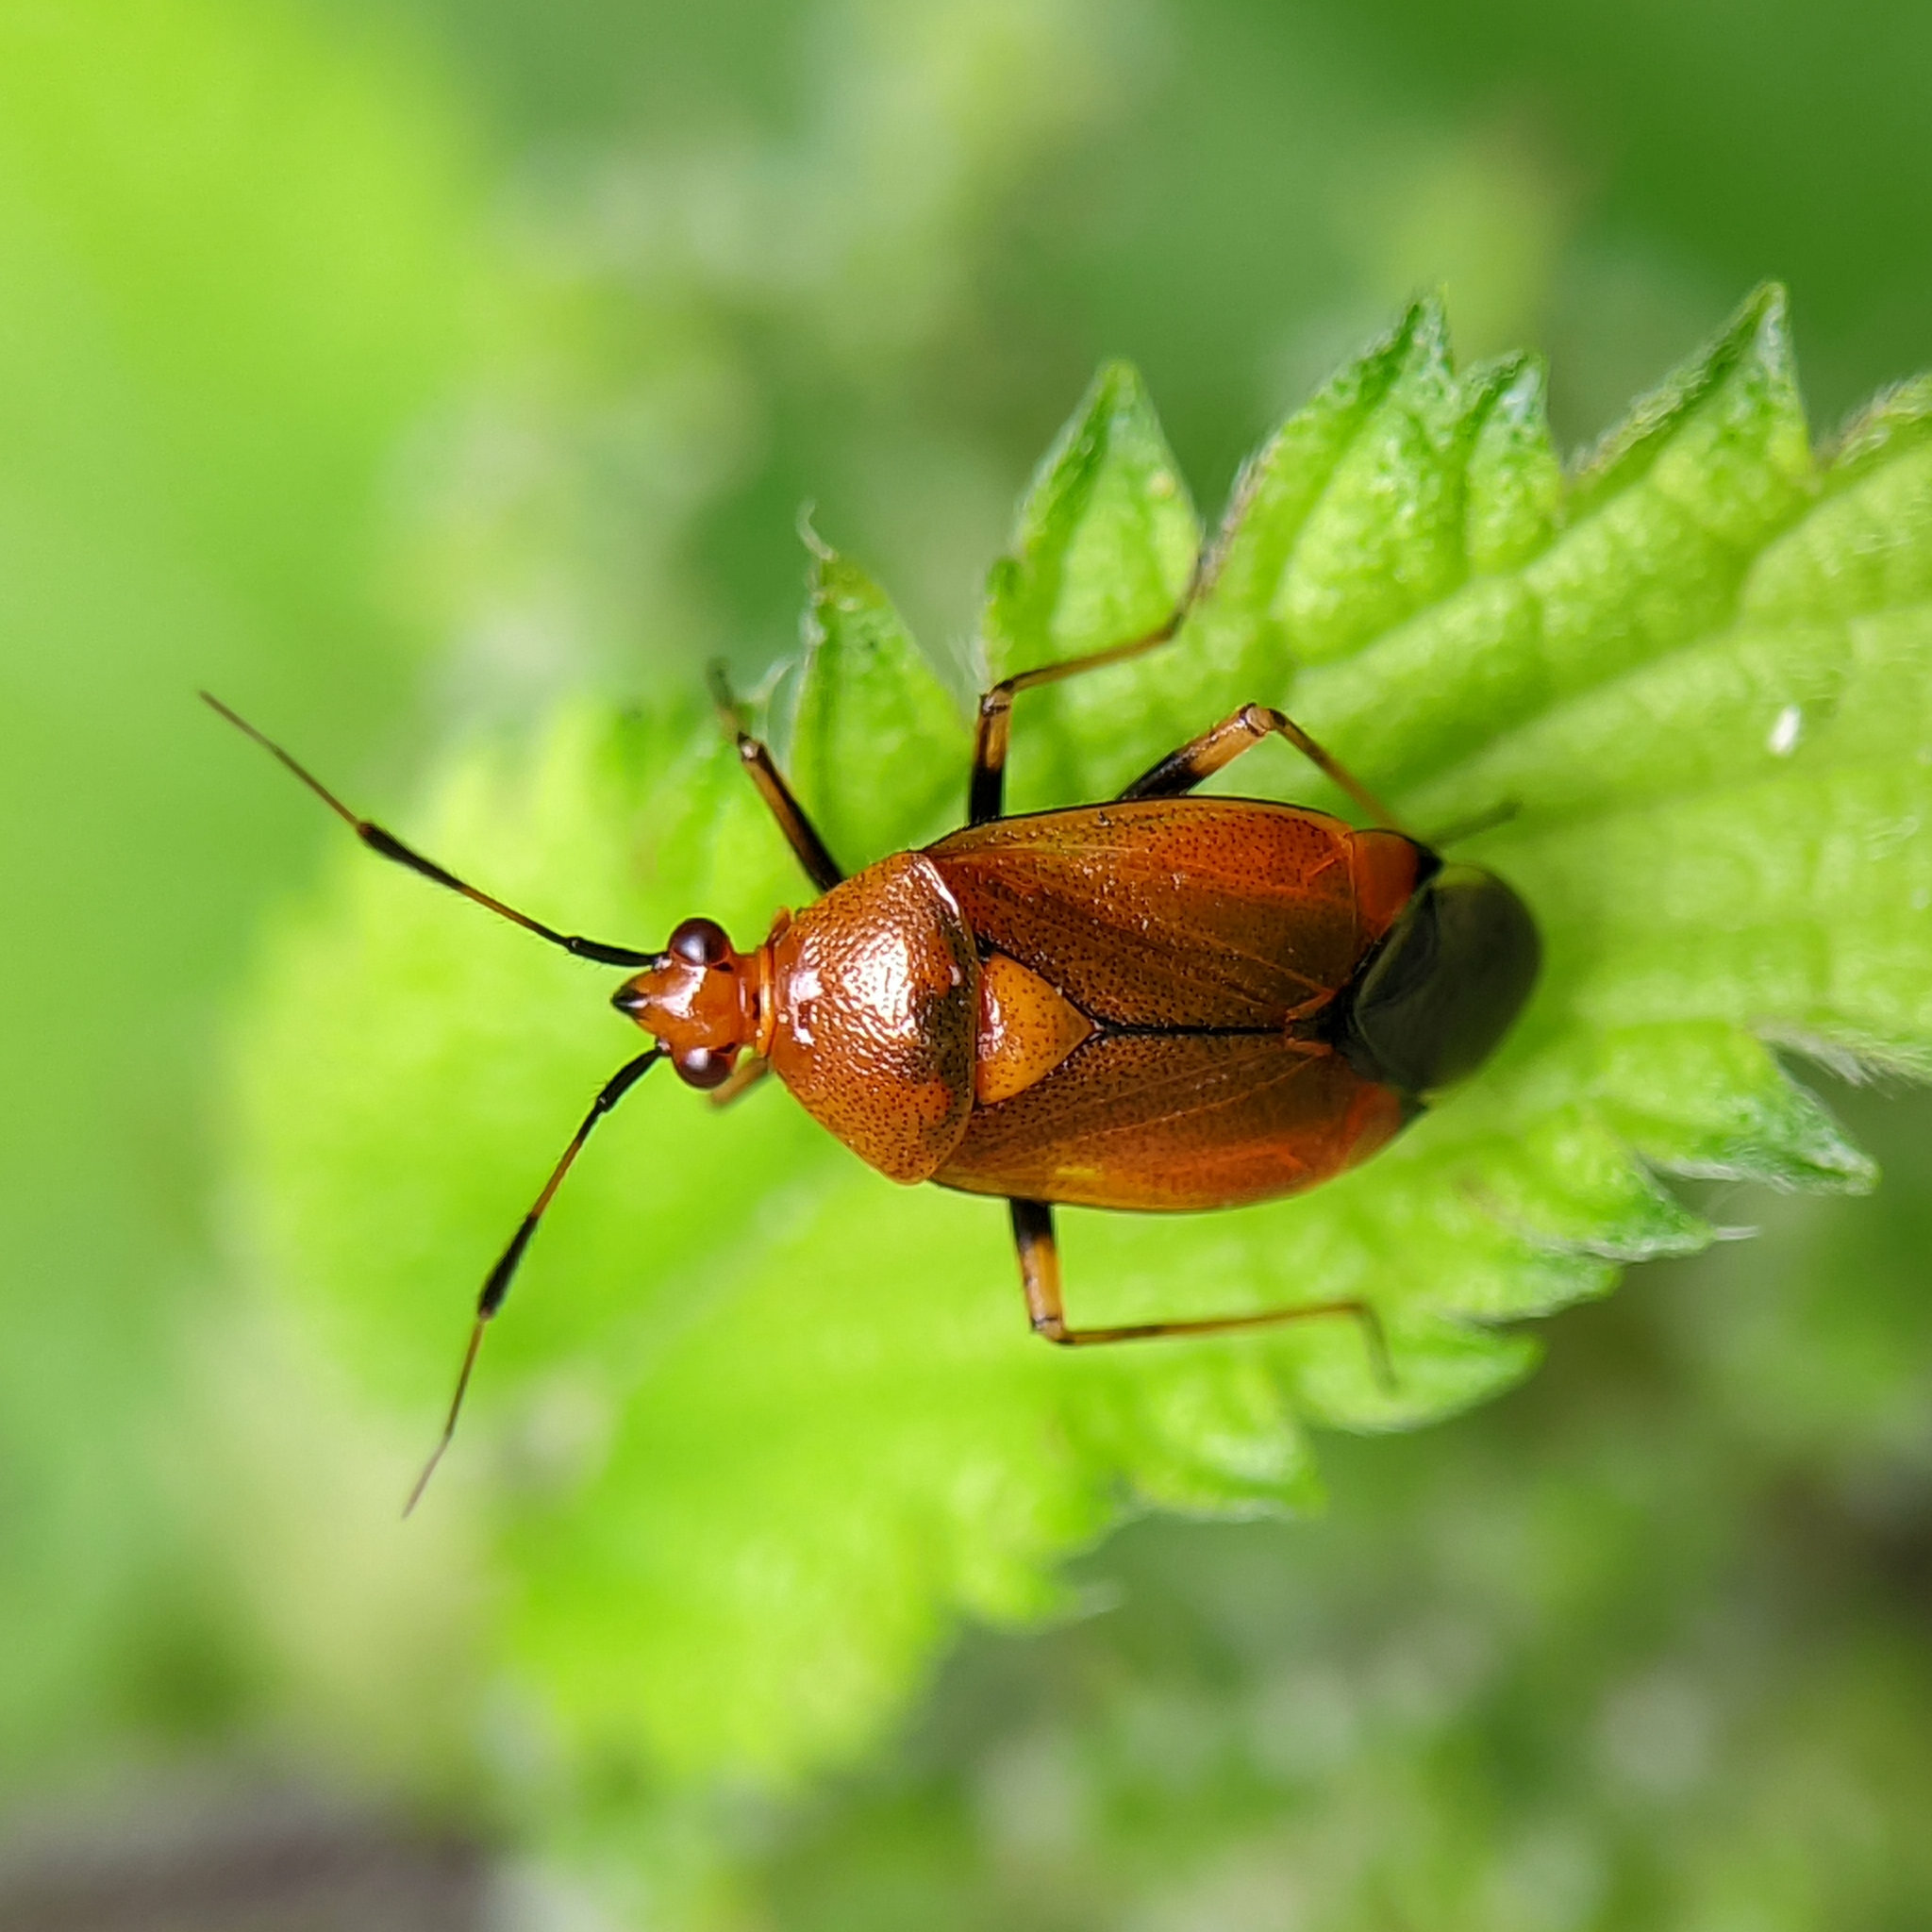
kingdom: Animalia
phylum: Arthropoda
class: Insecta
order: Hemiptera
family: Miridae
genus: Deraeocoris
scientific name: Deraeocoris ruber
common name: Plant bug
